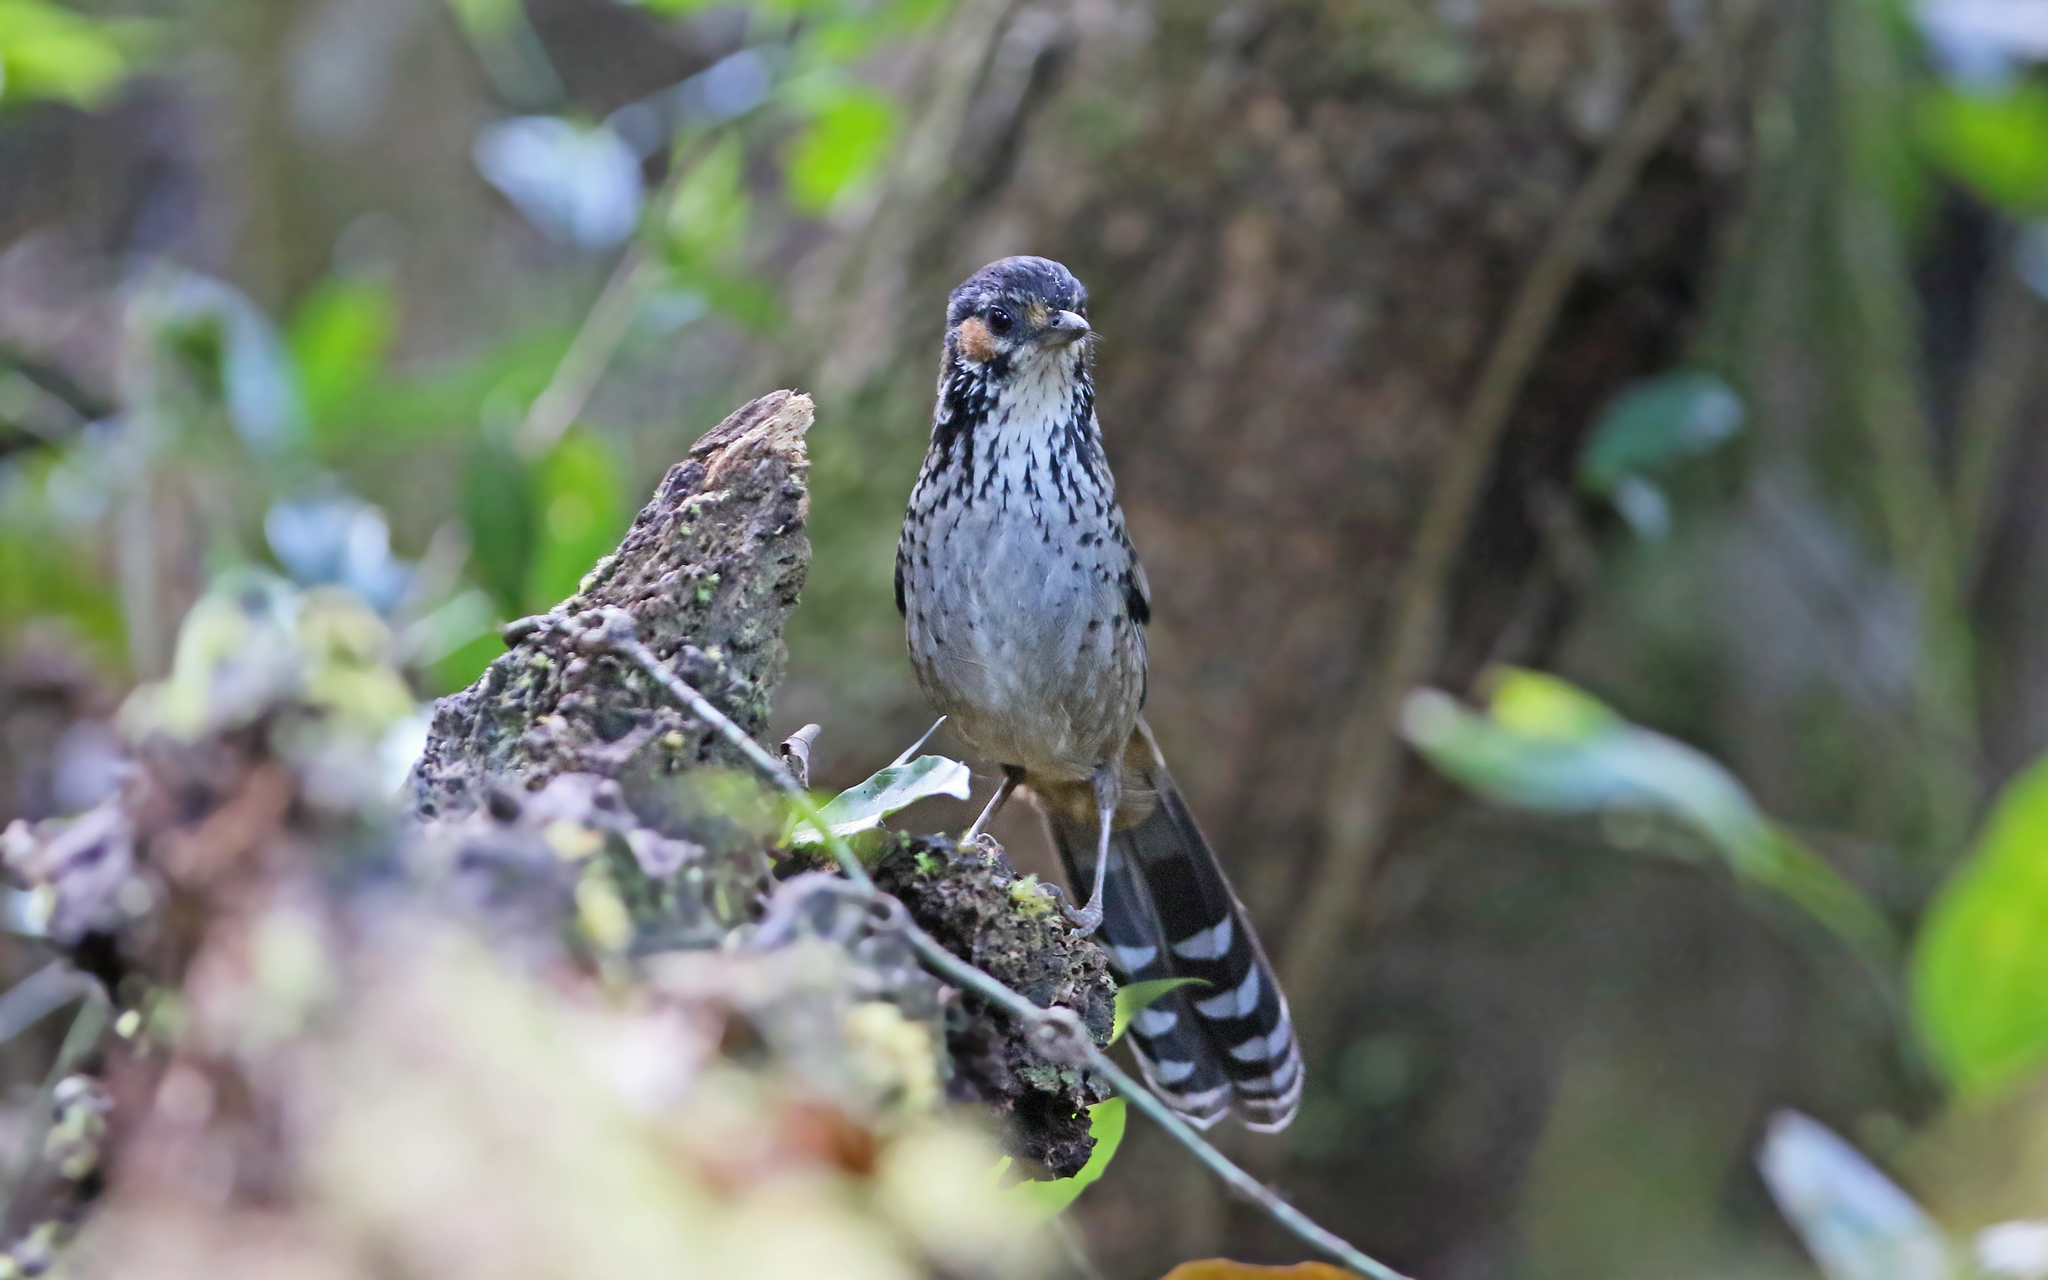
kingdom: Animalia
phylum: Chordata
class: Aves
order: Passeriformes
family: Leiothrichidae
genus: Garrulax
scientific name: Garrulax konkakinhensis
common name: Chestnut-eared laughingthrush
